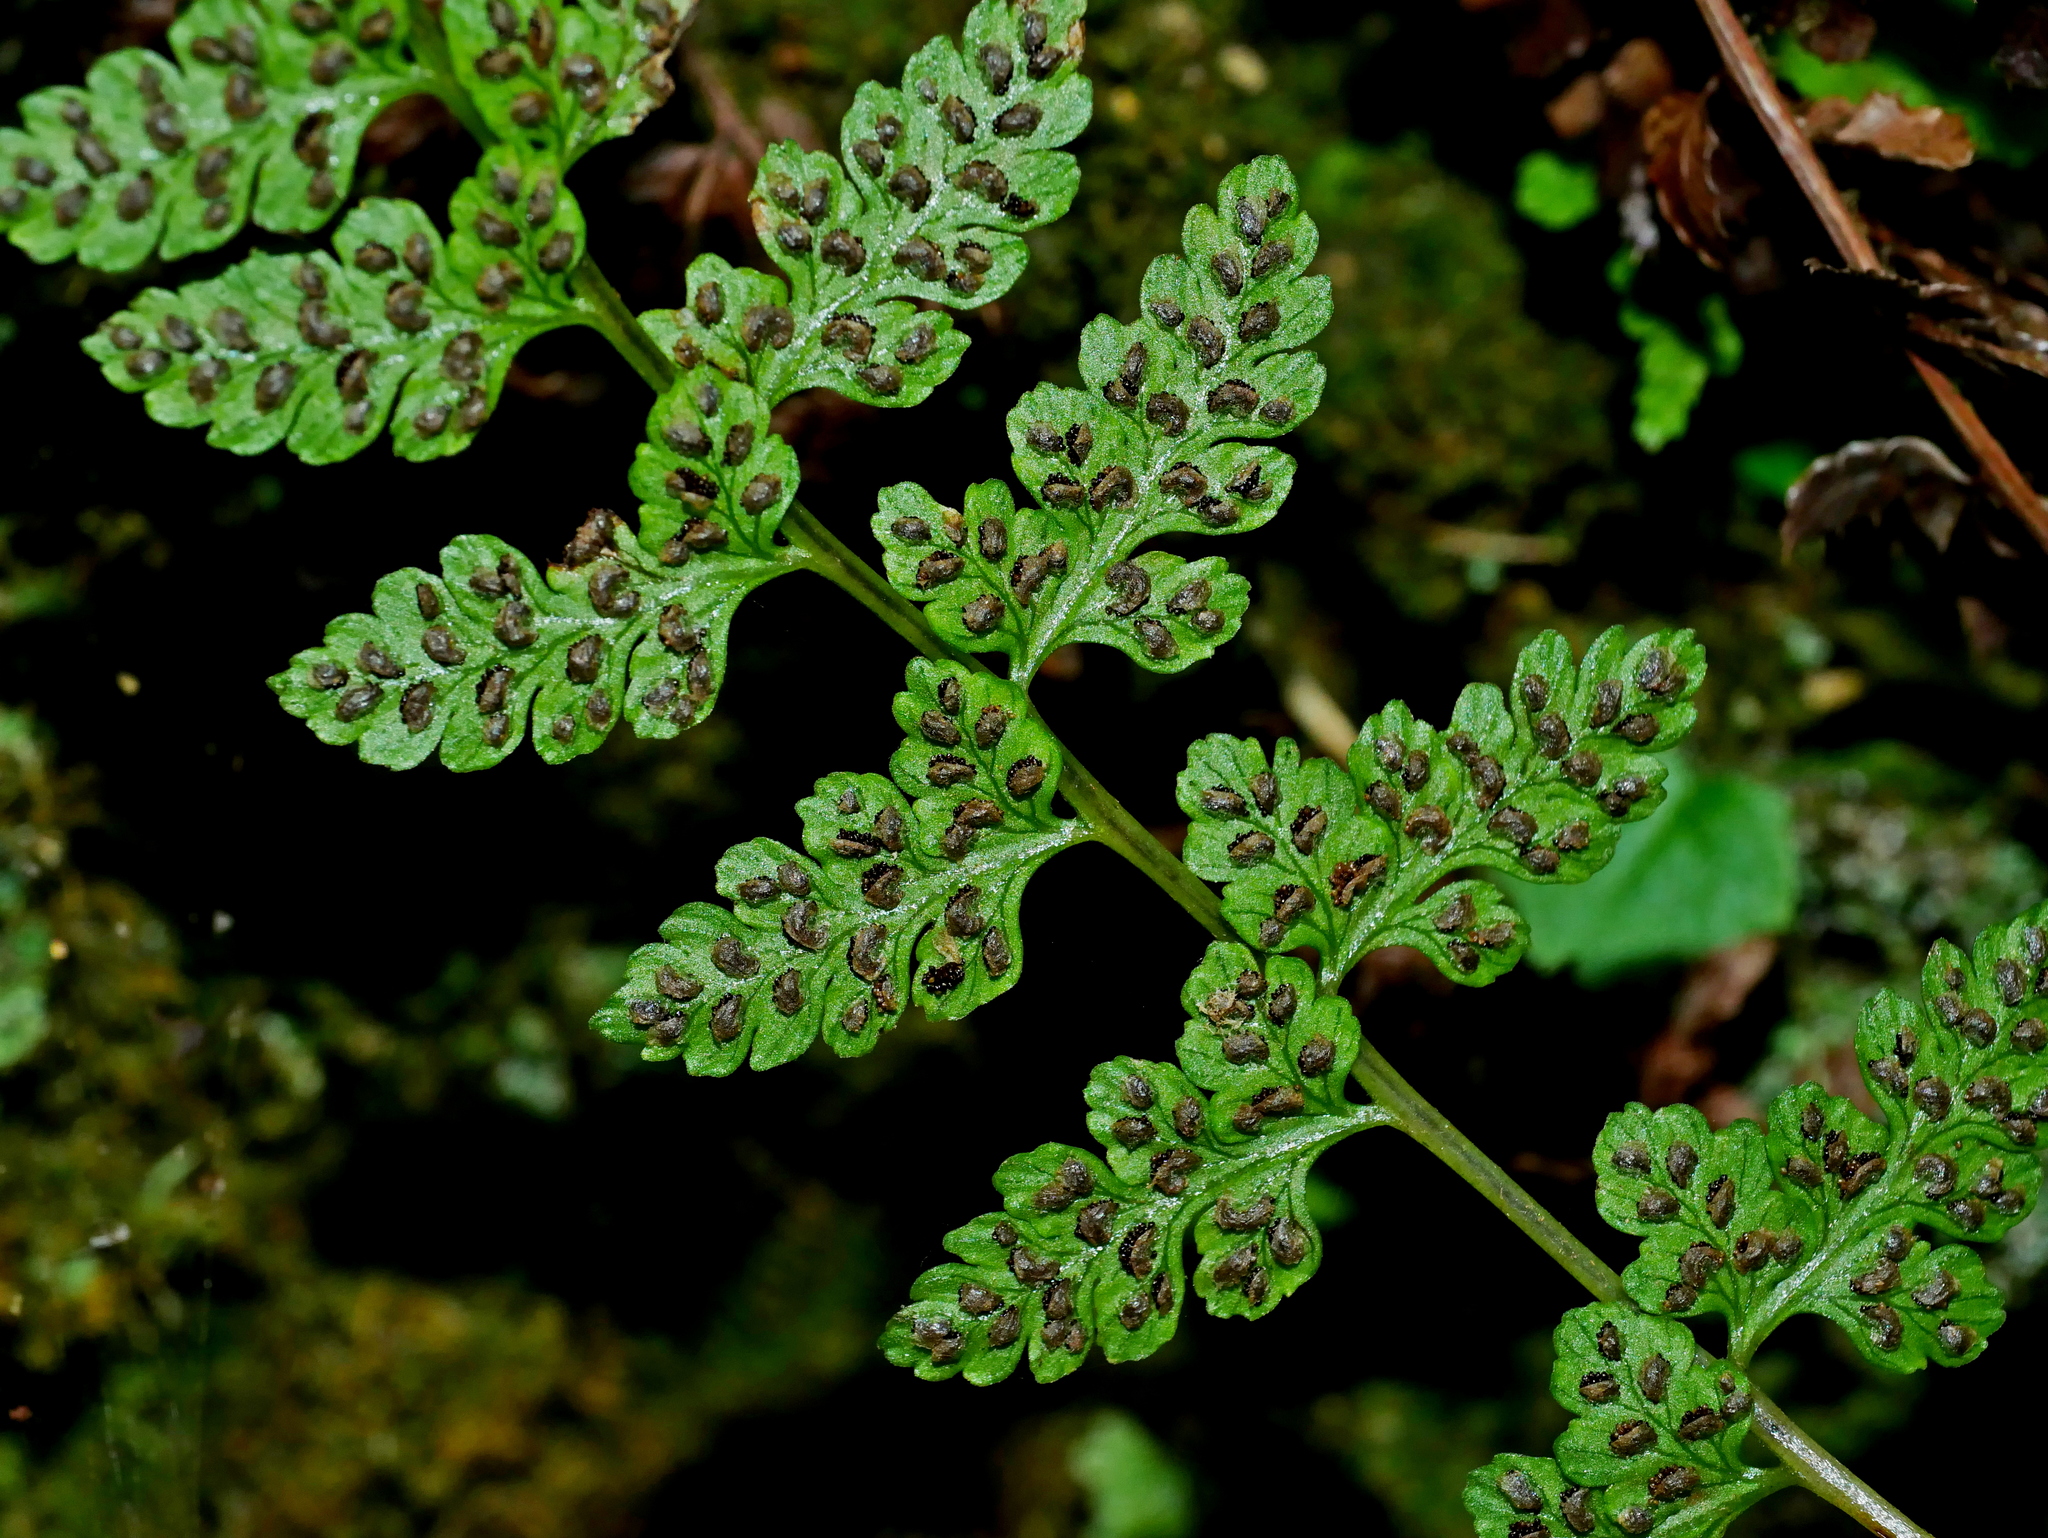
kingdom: Plantae
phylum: Tracheophyta
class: Polypodiopsida
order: Polypodiales
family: Athyriaceae
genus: Athyrium
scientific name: Athyrium anisopterum
